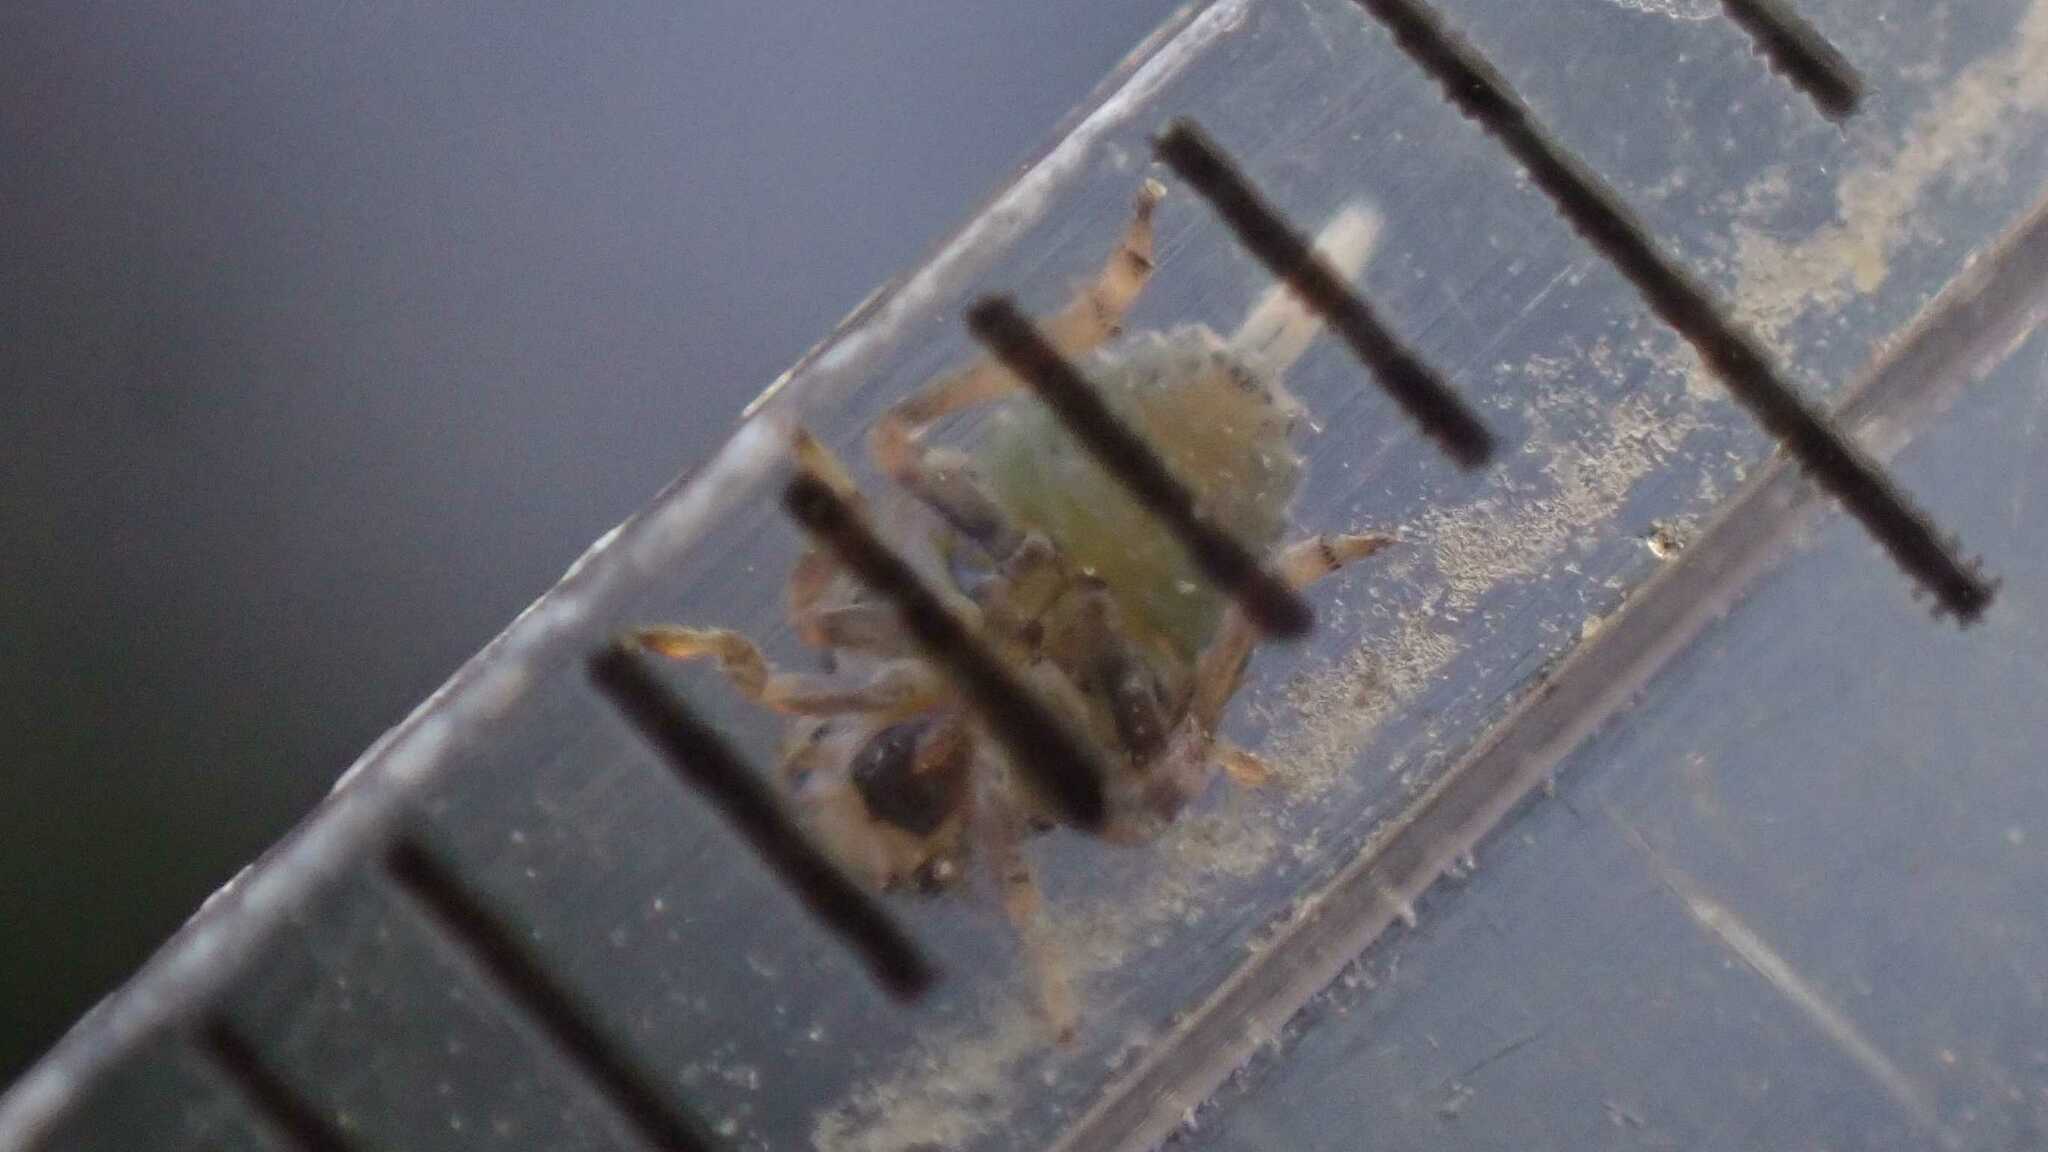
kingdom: Animalia
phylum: Arthropoda
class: Insecta
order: Hemiptera
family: Issidae
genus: Issus
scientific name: Issus coleoptratus
